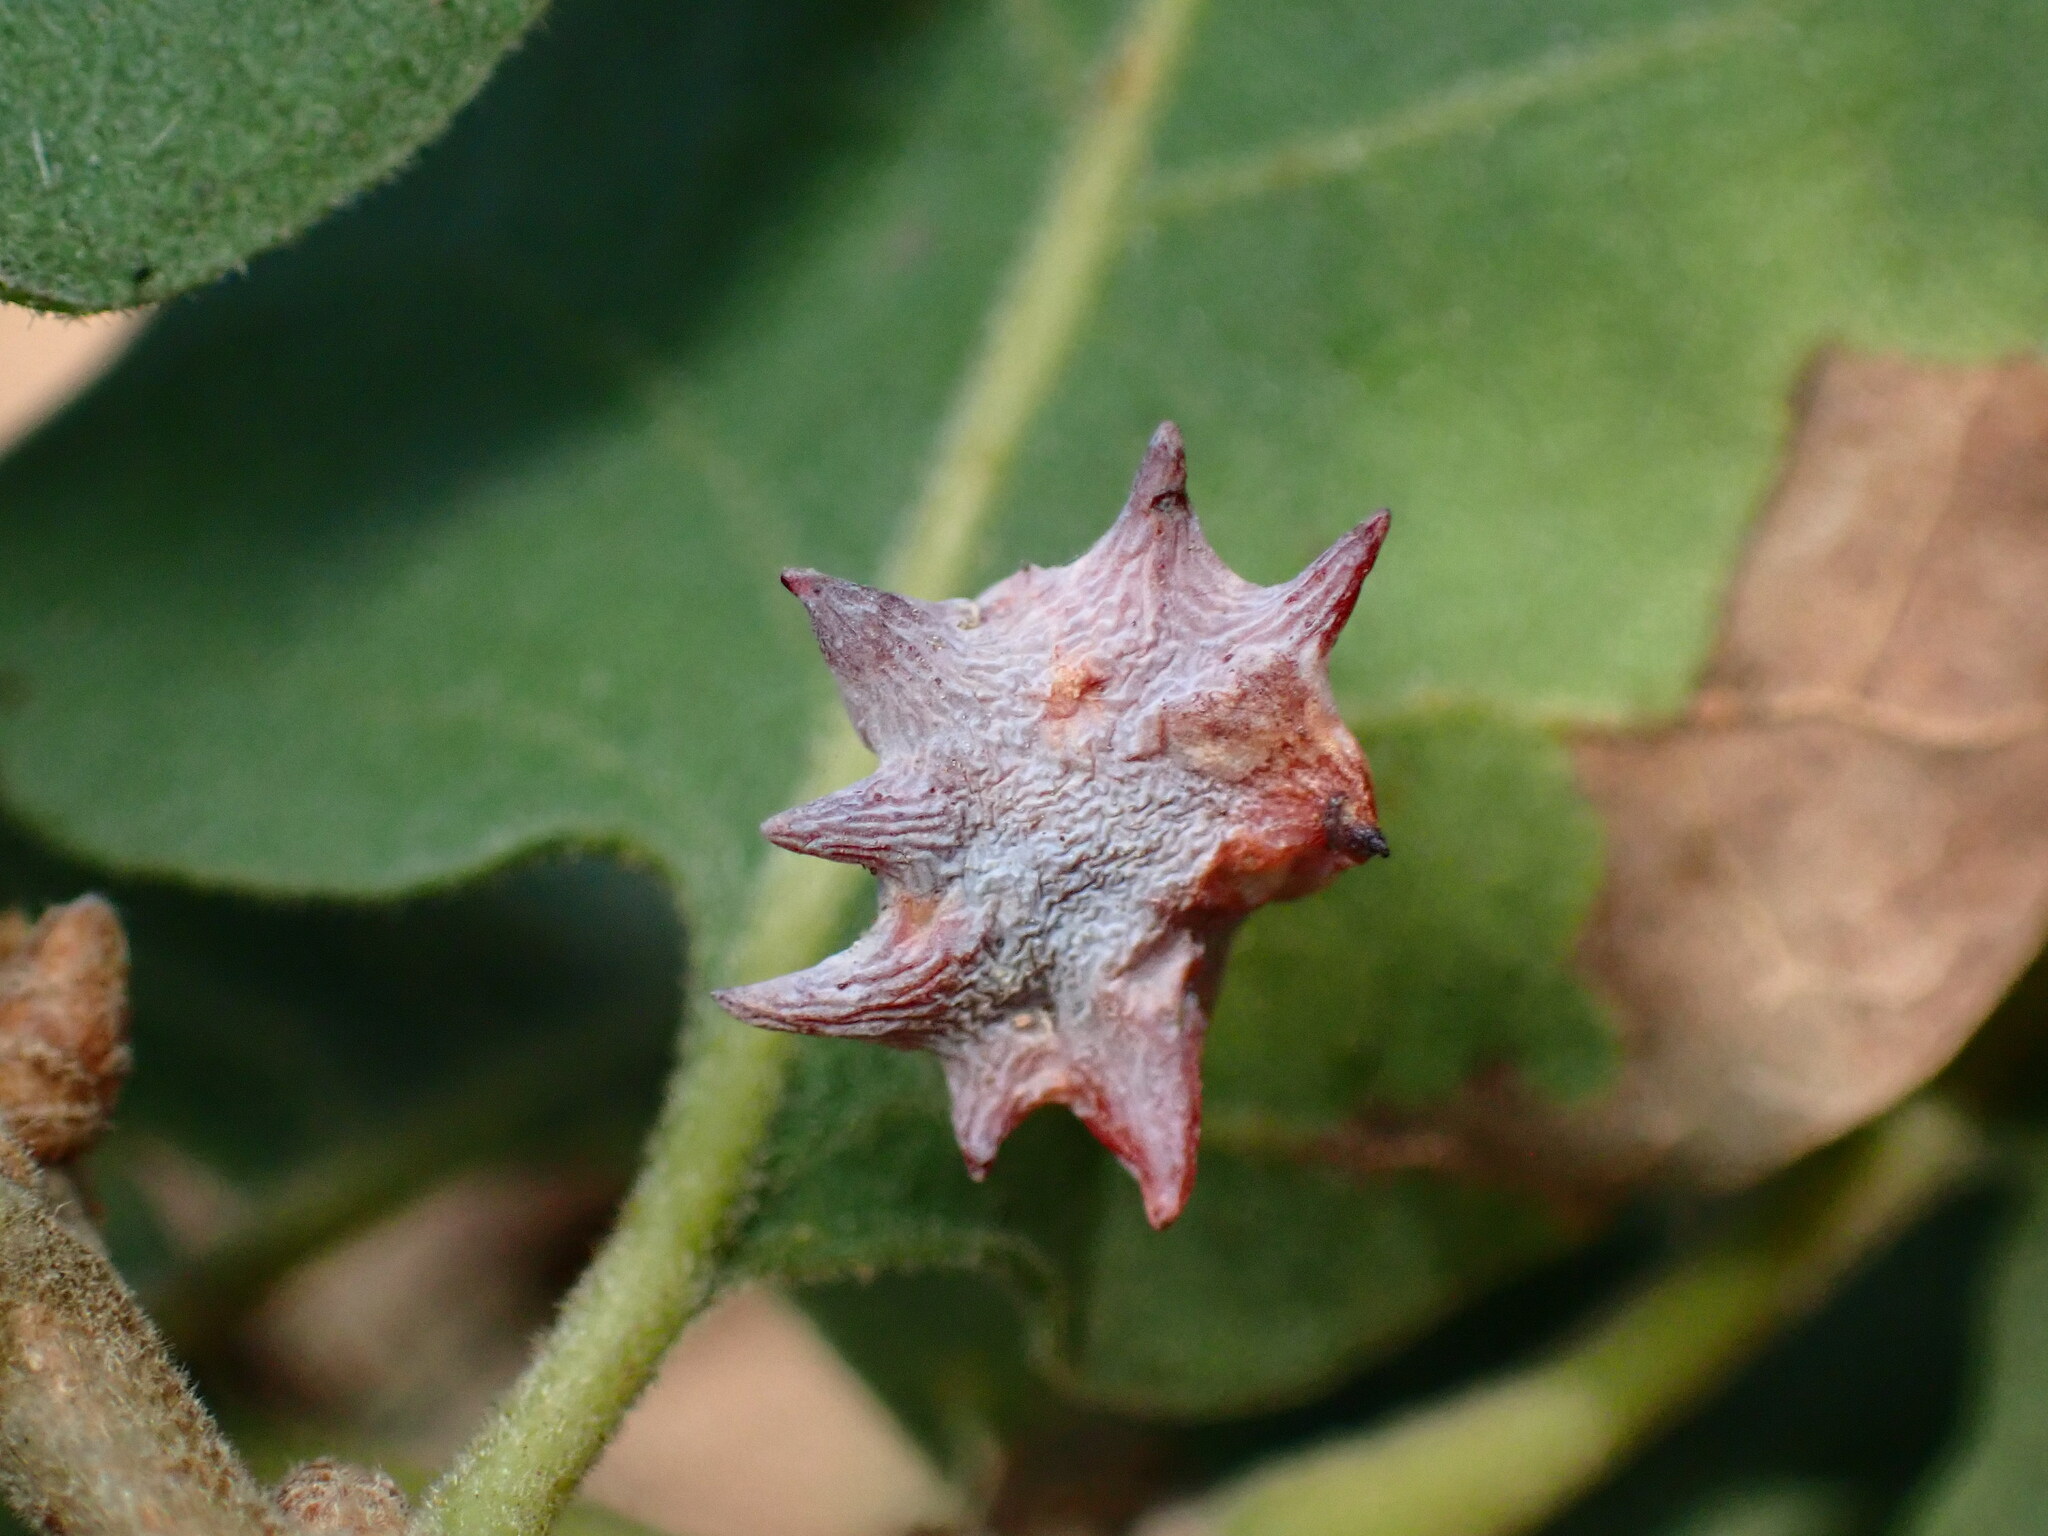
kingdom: Animalia
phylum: Arthropoda
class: Insecta
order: Hymenoptera
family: Cynipidae
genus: Cynips
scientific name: Cynips douglasi
